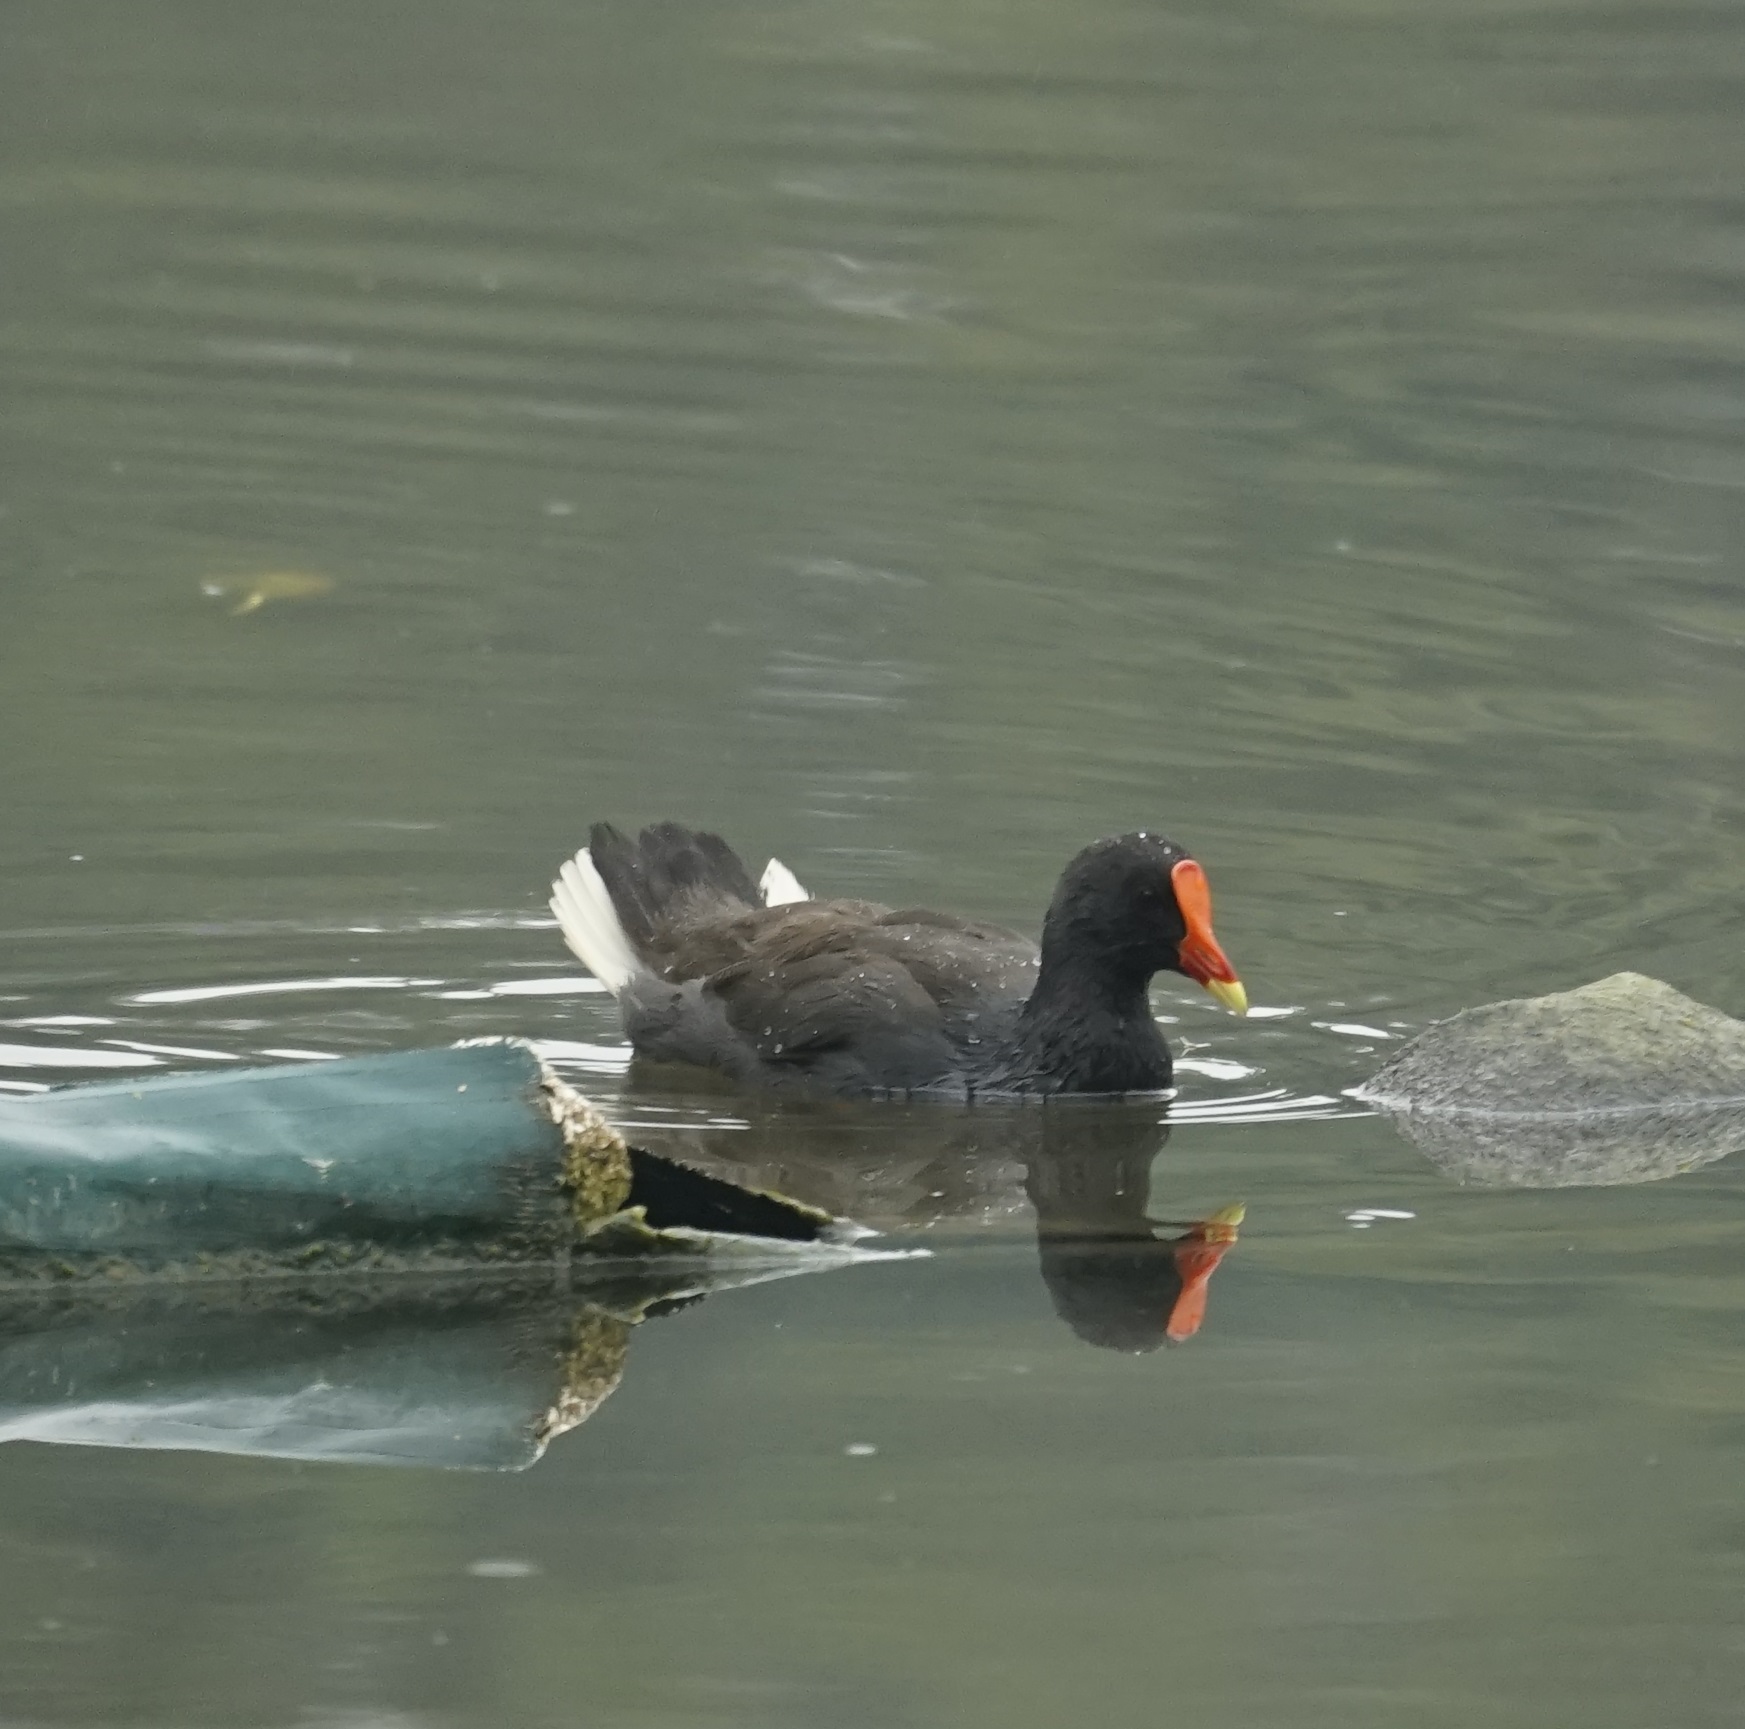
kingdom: Animalia
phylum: Chordata
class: Aves
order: Gruiformes
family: Rallidae
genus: Gallinula
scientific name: Gallinula tenebrosa
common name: Dusky moorhen
